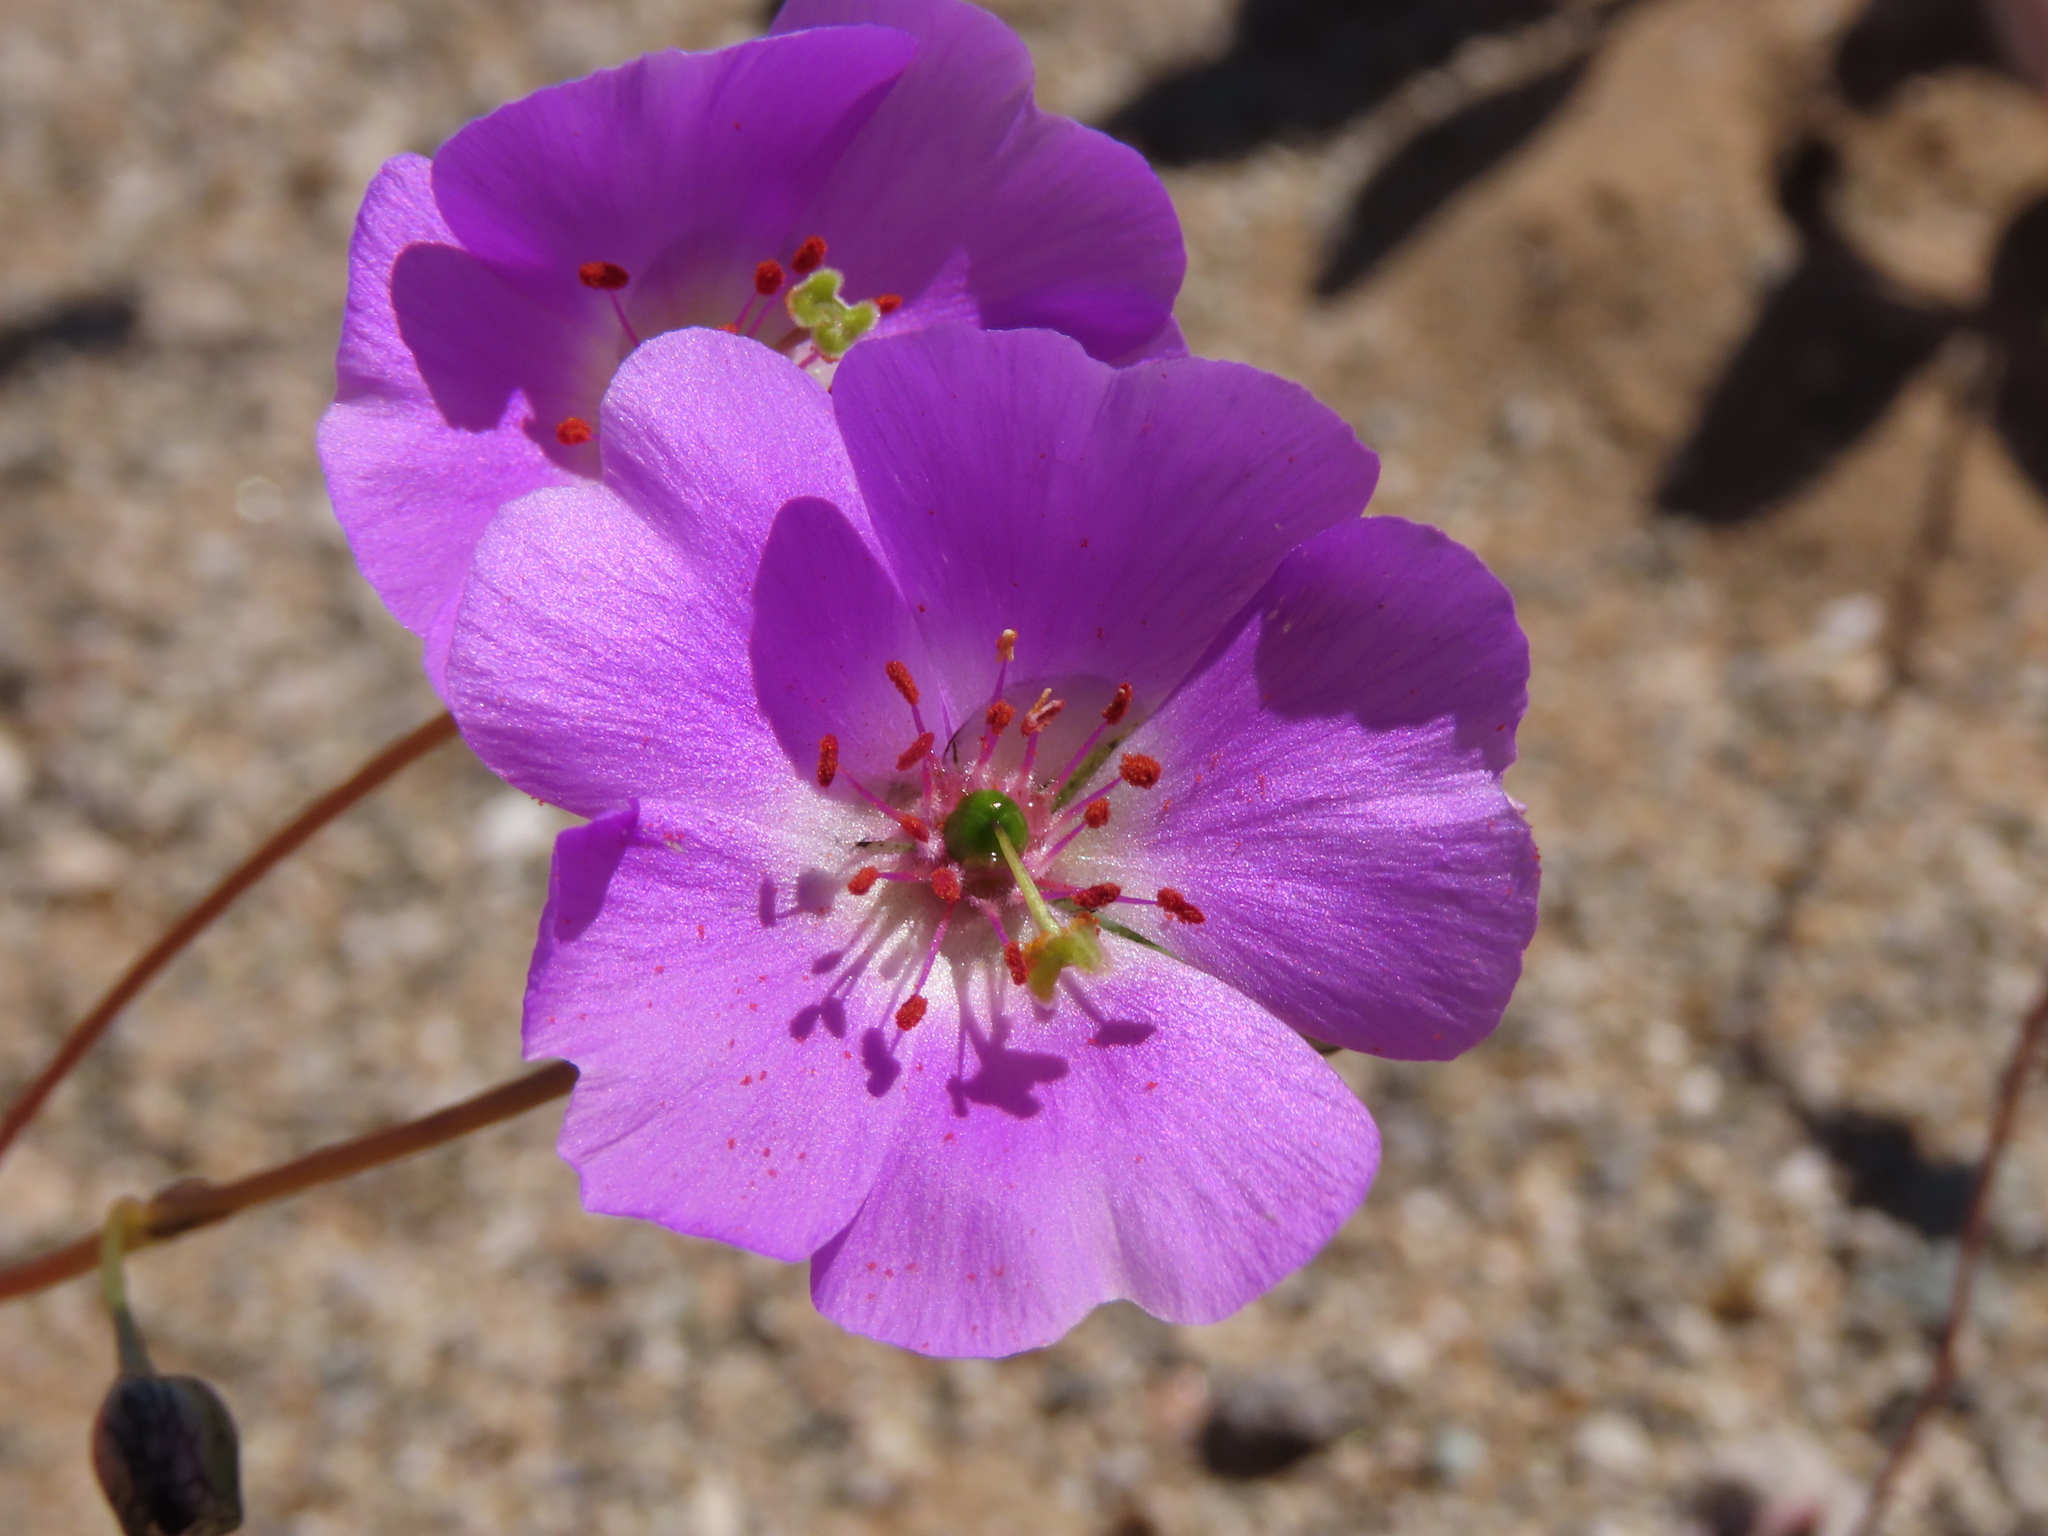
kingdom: Plantae
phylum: Tracheophyta
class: Magnoliopsida
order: Caryophyllales
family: Montiaceae
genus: Cistanthe
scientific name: Cistanthe longiscapa
